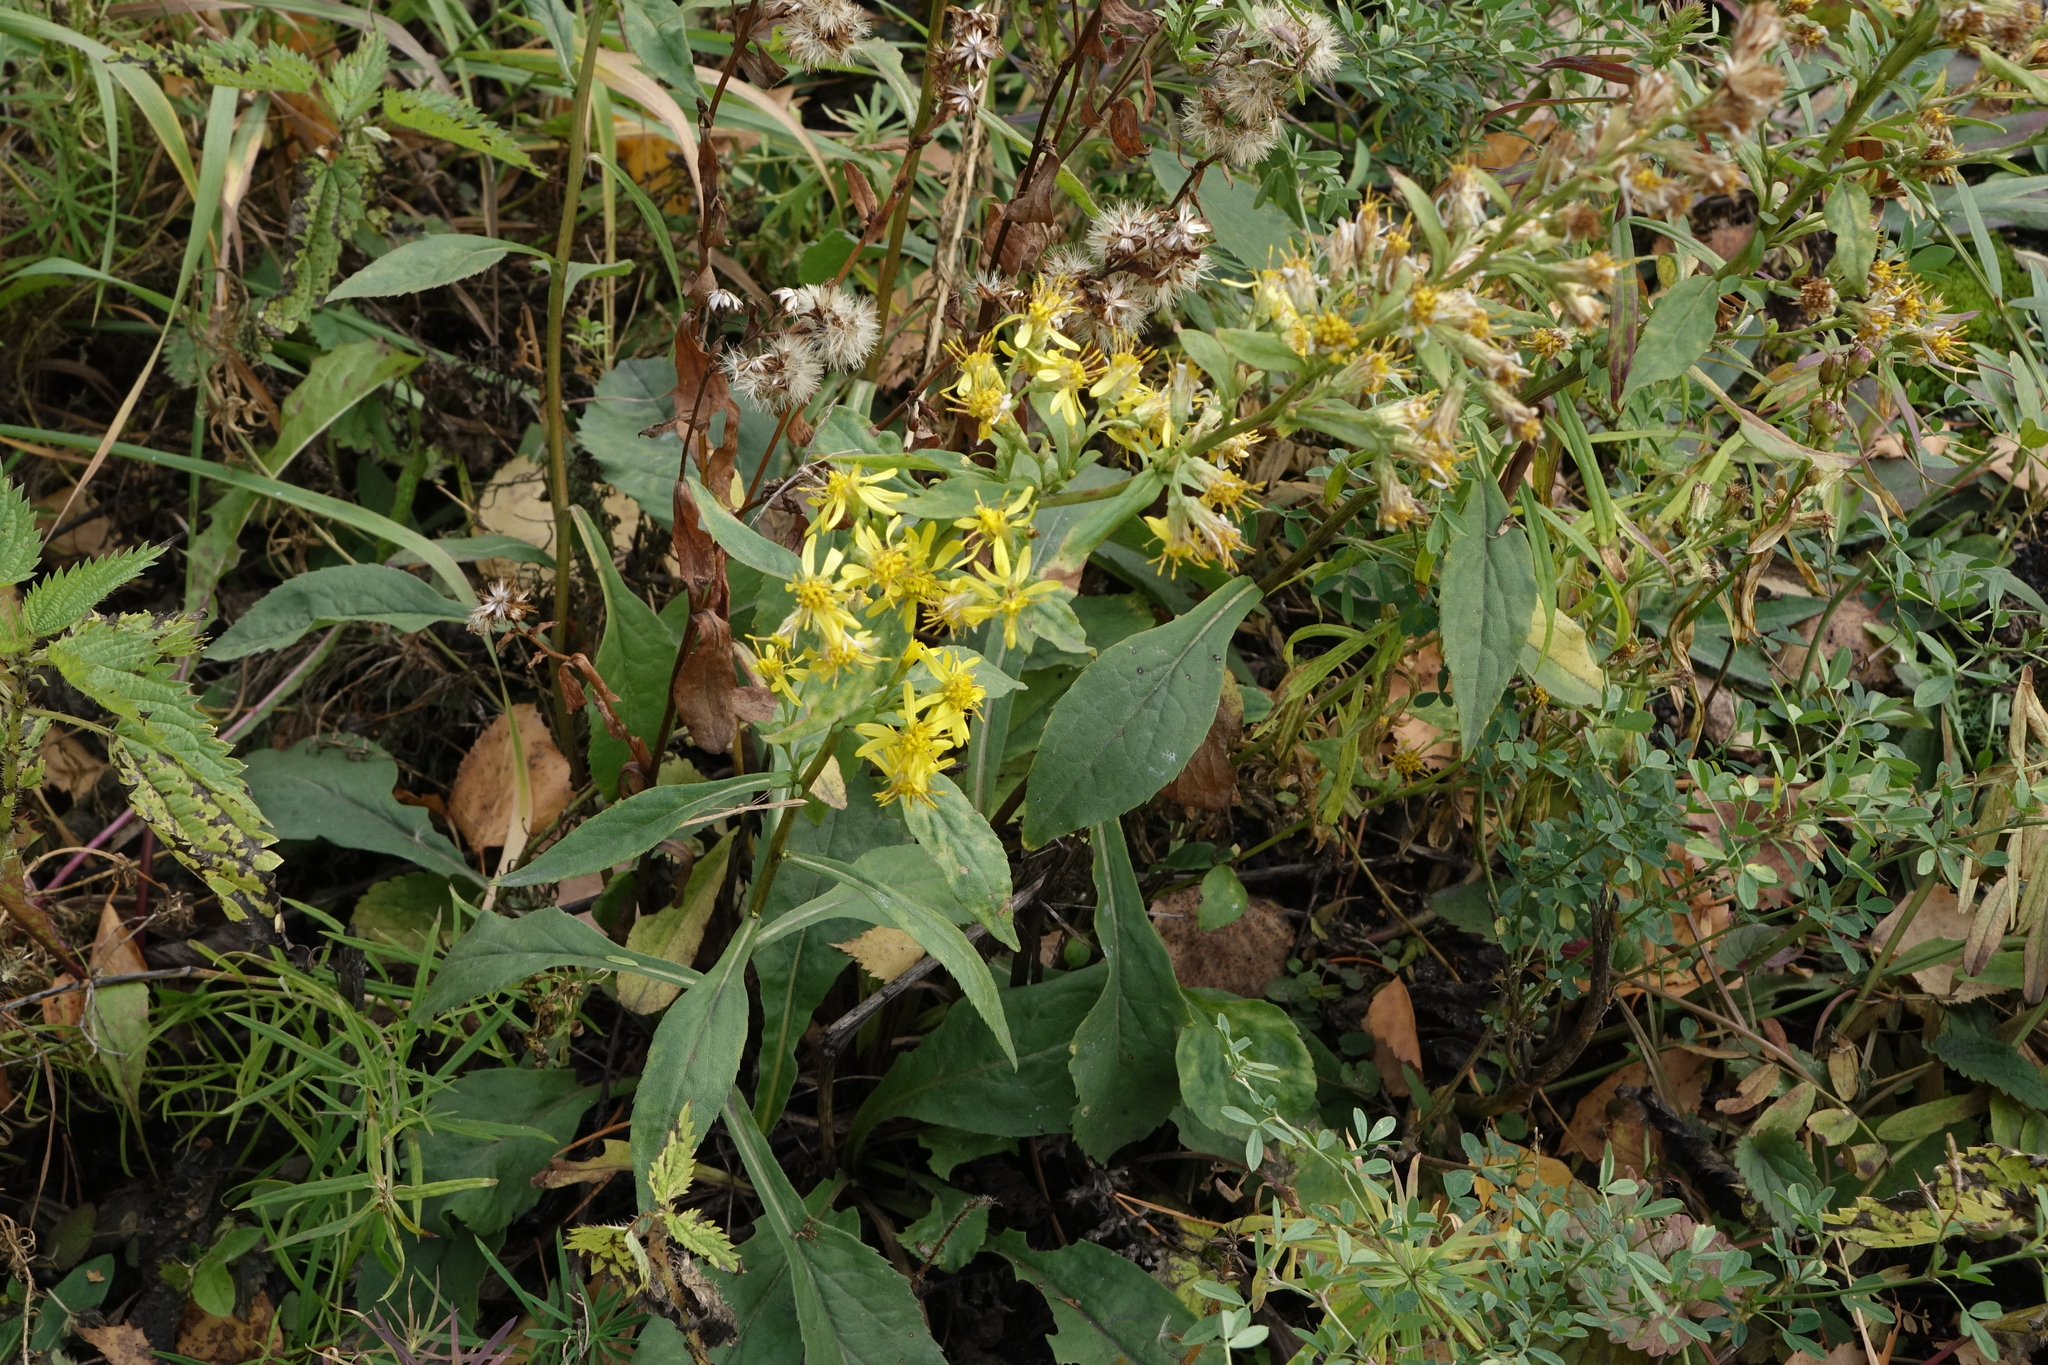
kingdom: Plantae
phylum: Tracheophyta
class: Magnoliopsida
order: Asterales
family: Asteraceae
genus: Solidago
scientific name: Solidago virgaurea
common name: Goldenrod
